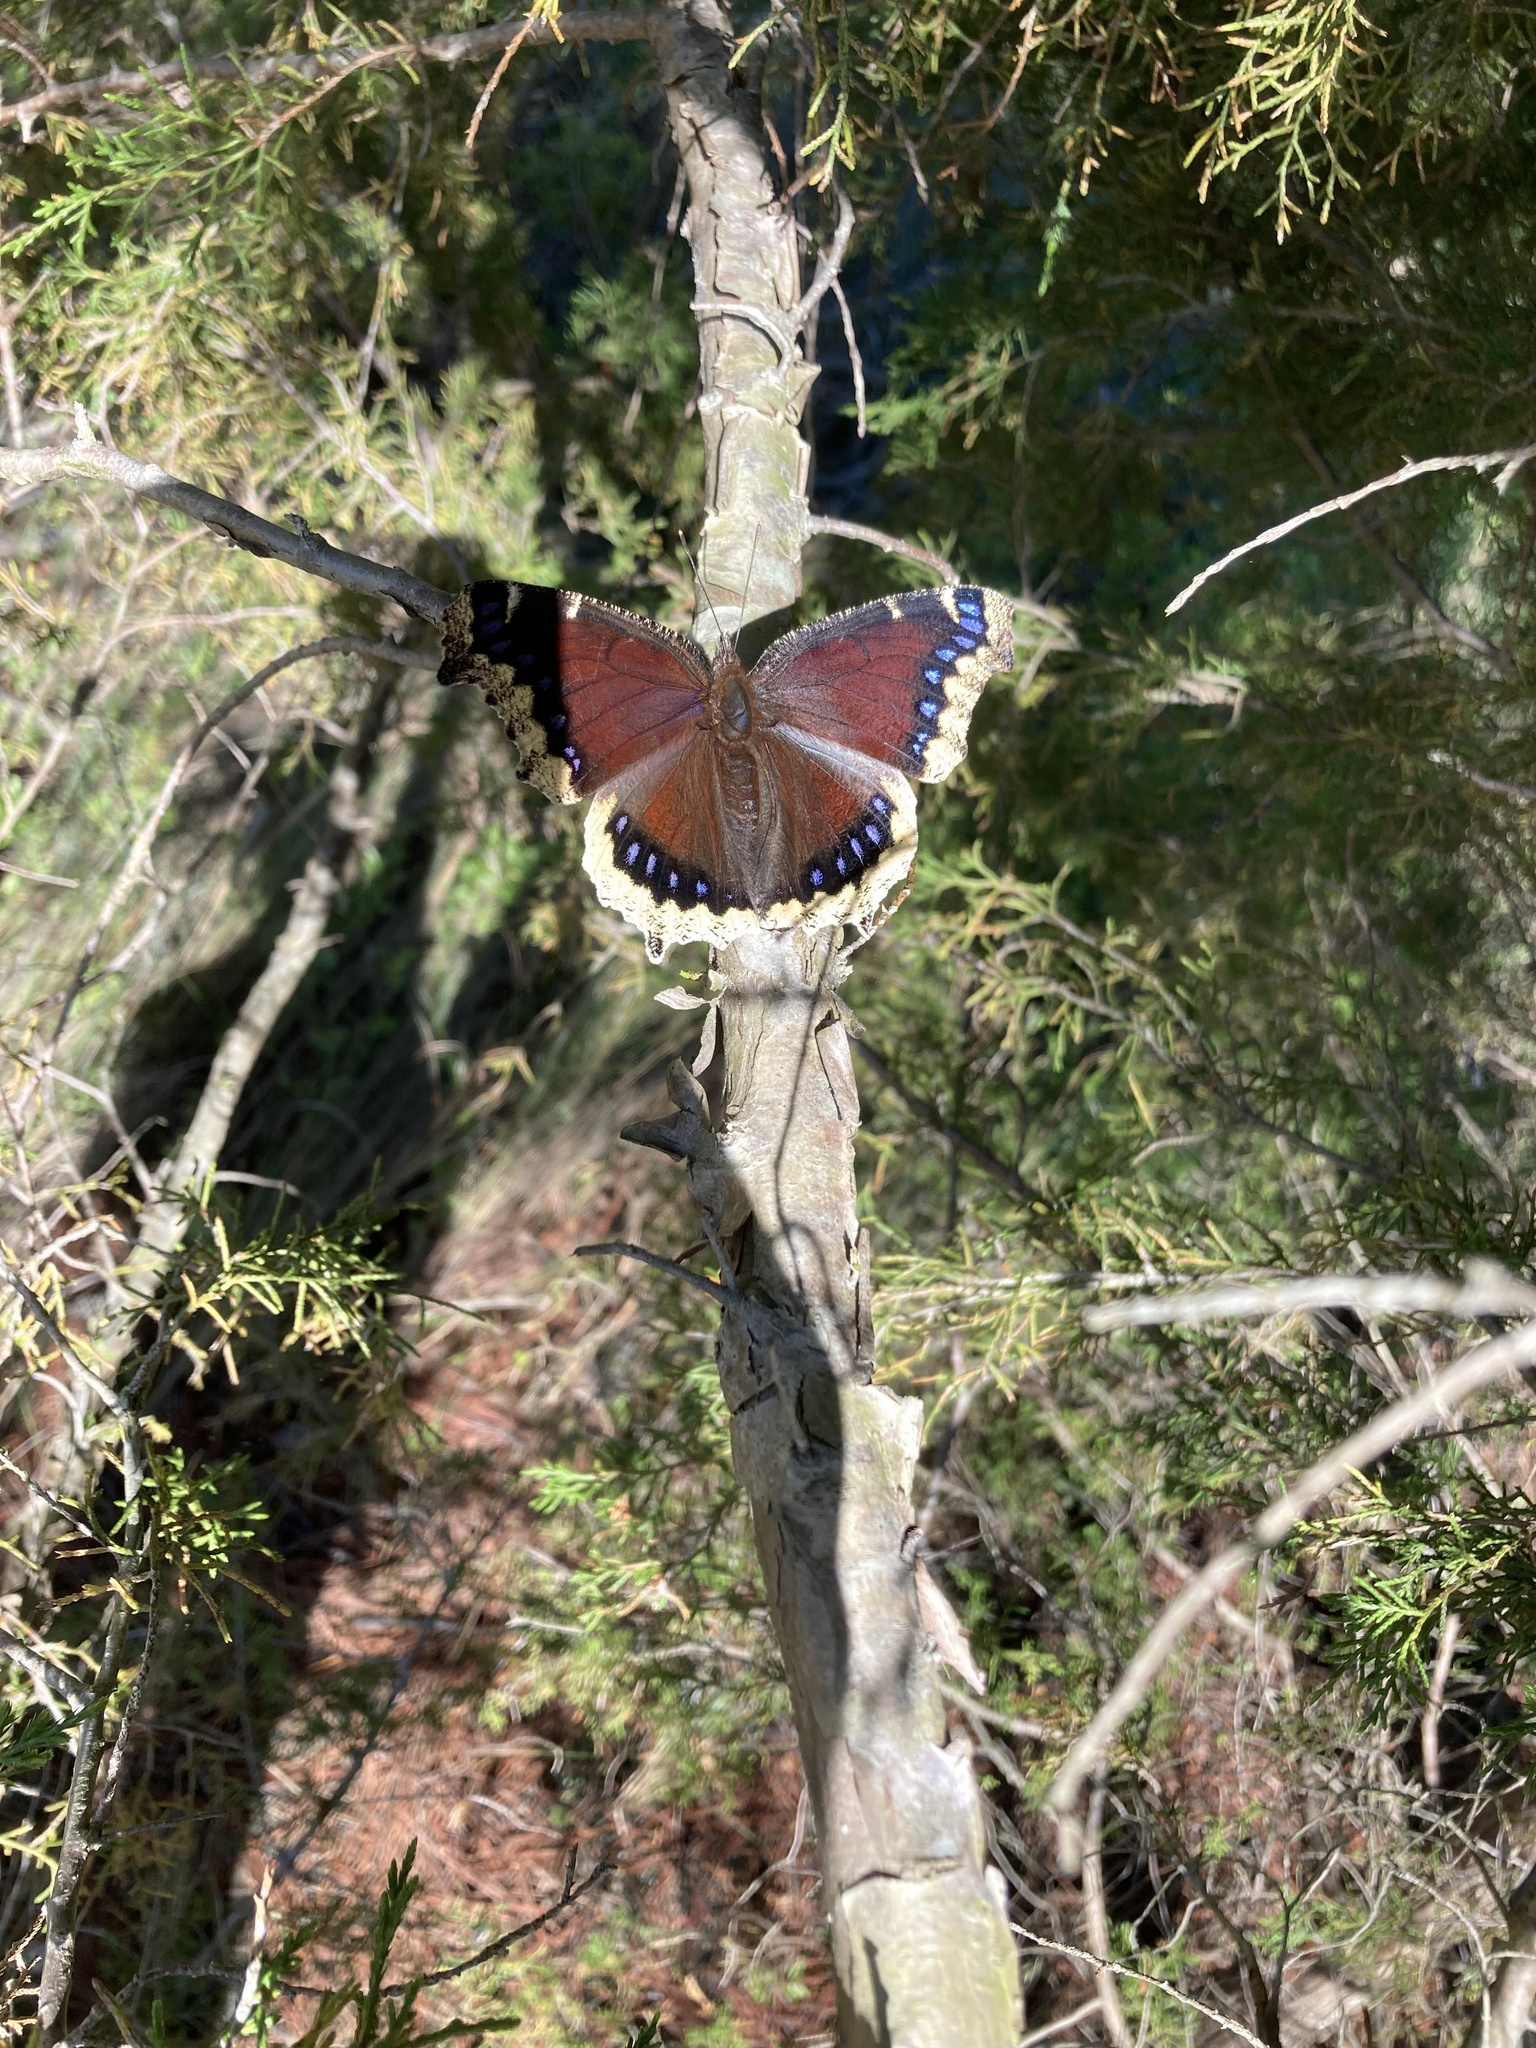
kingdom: Animalia
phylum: Arthropoda
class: Insecta
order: Lepidoptera
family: Nymphalidae
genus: Nymphalis
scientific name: Nymphalis antiopa
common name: Camberwell beauty
